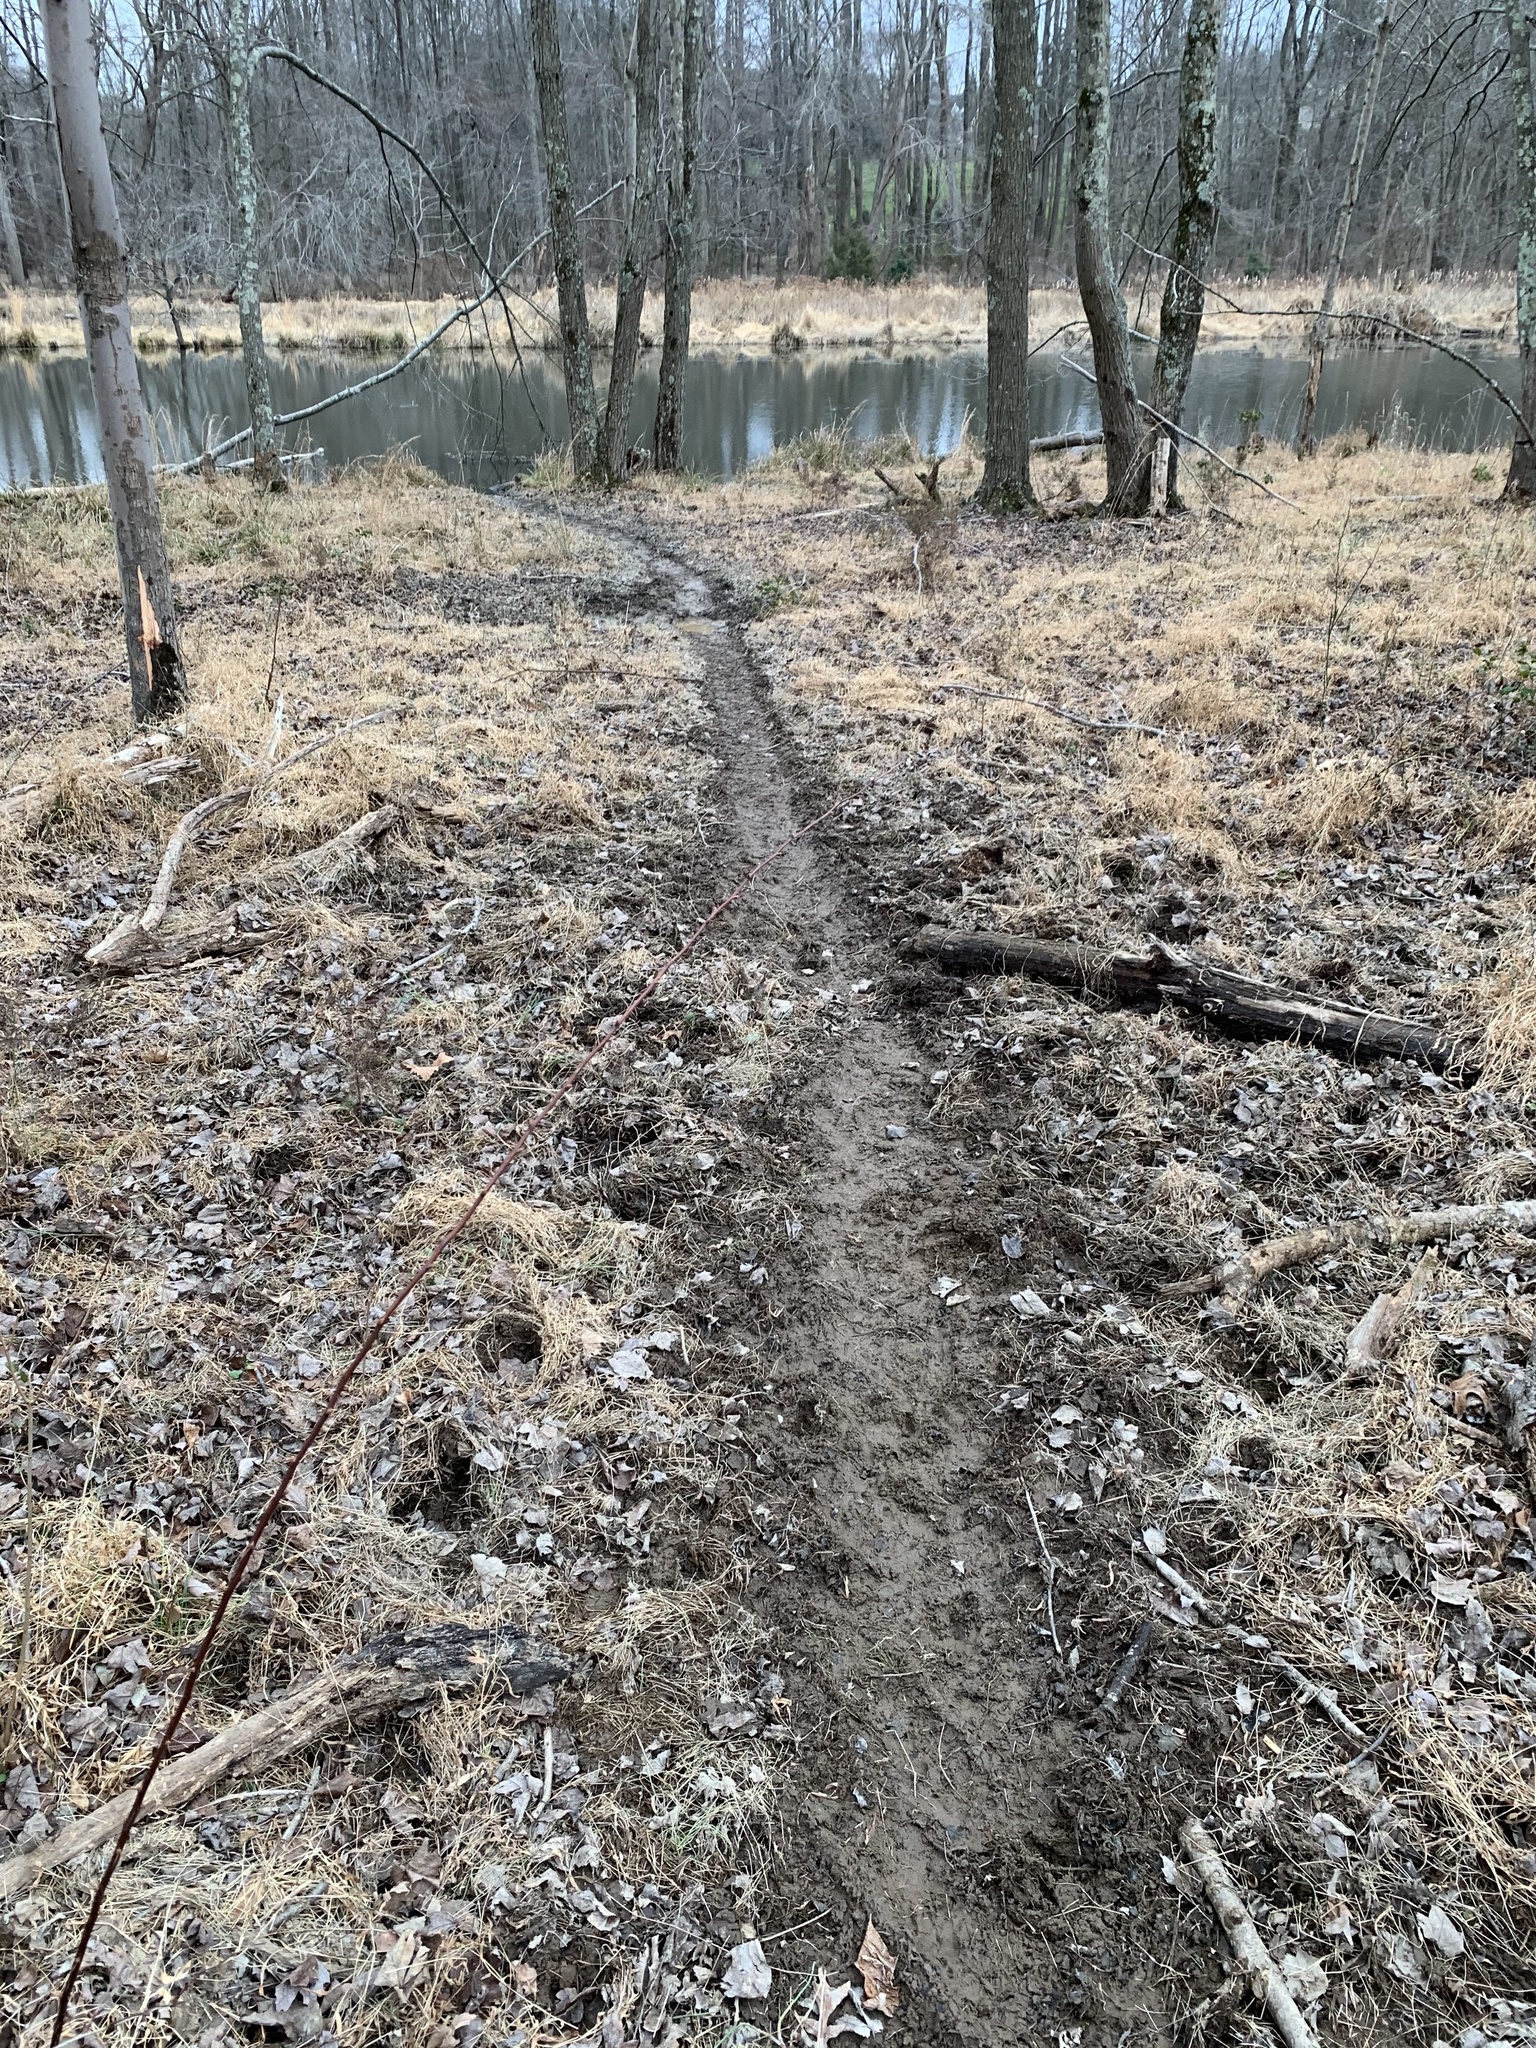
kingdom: Animalia
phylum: Chordata
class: Mammalia
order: Rodentia
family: Castoridae
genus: Castor
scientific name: Castor canadensis
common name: American beaver
